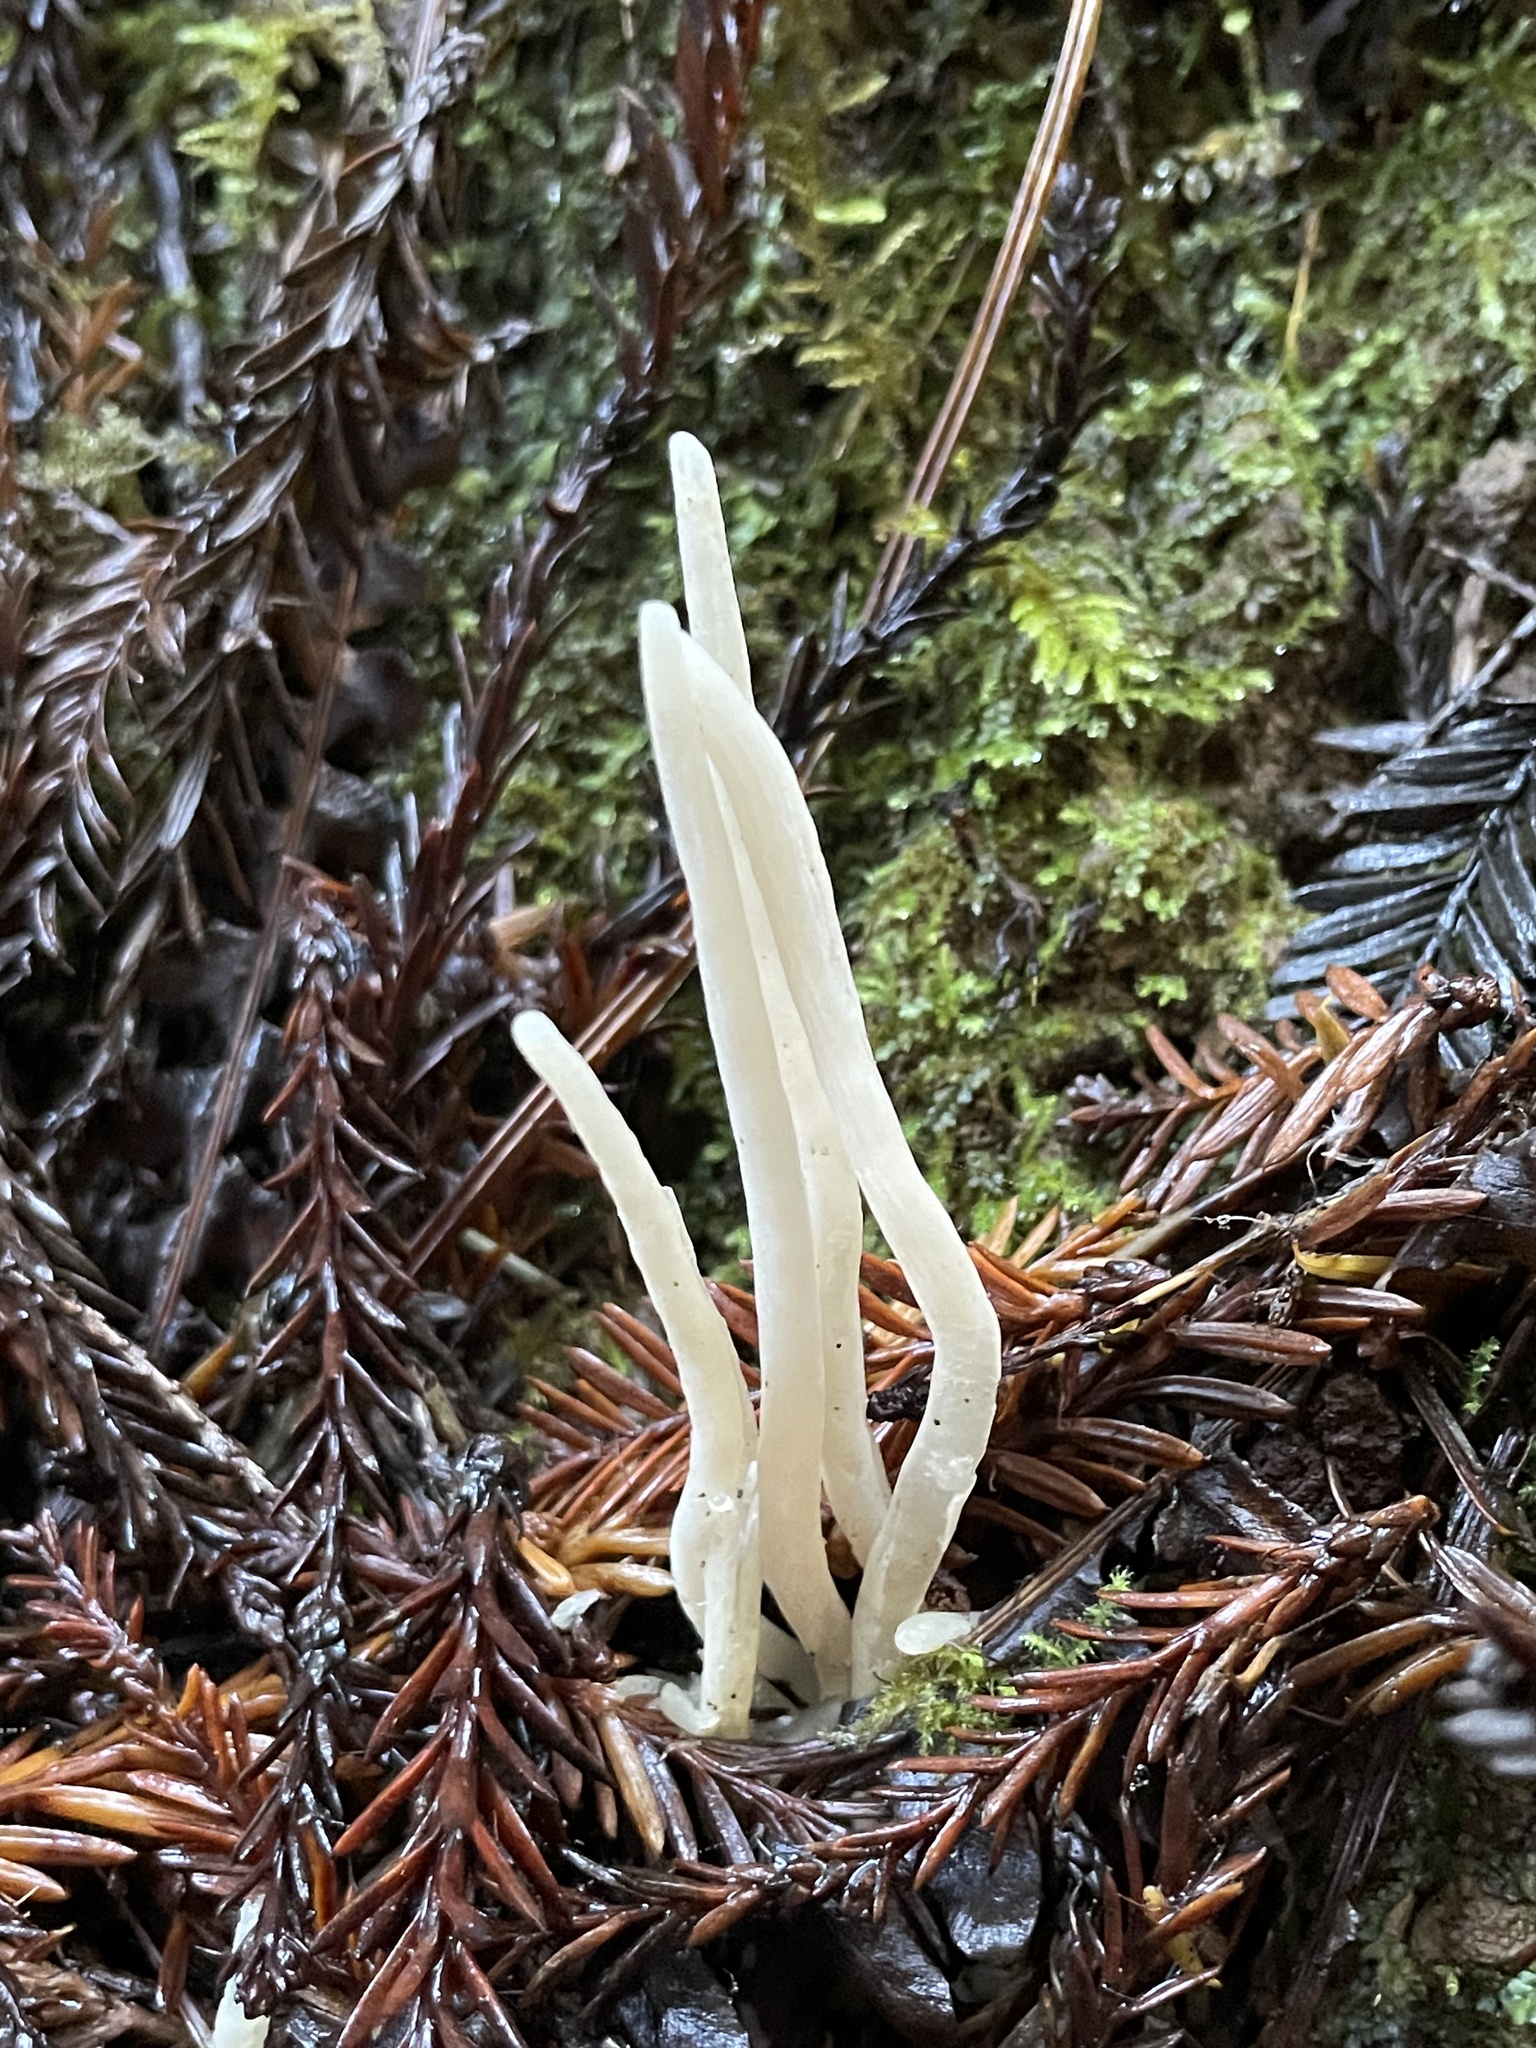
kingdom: Fungi
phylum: Basidiomycota
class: Agaricomycetes
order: Agaricales
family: Clavariaceae
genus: Clavaria
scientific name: Clavaria fragilis
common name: White spindles
